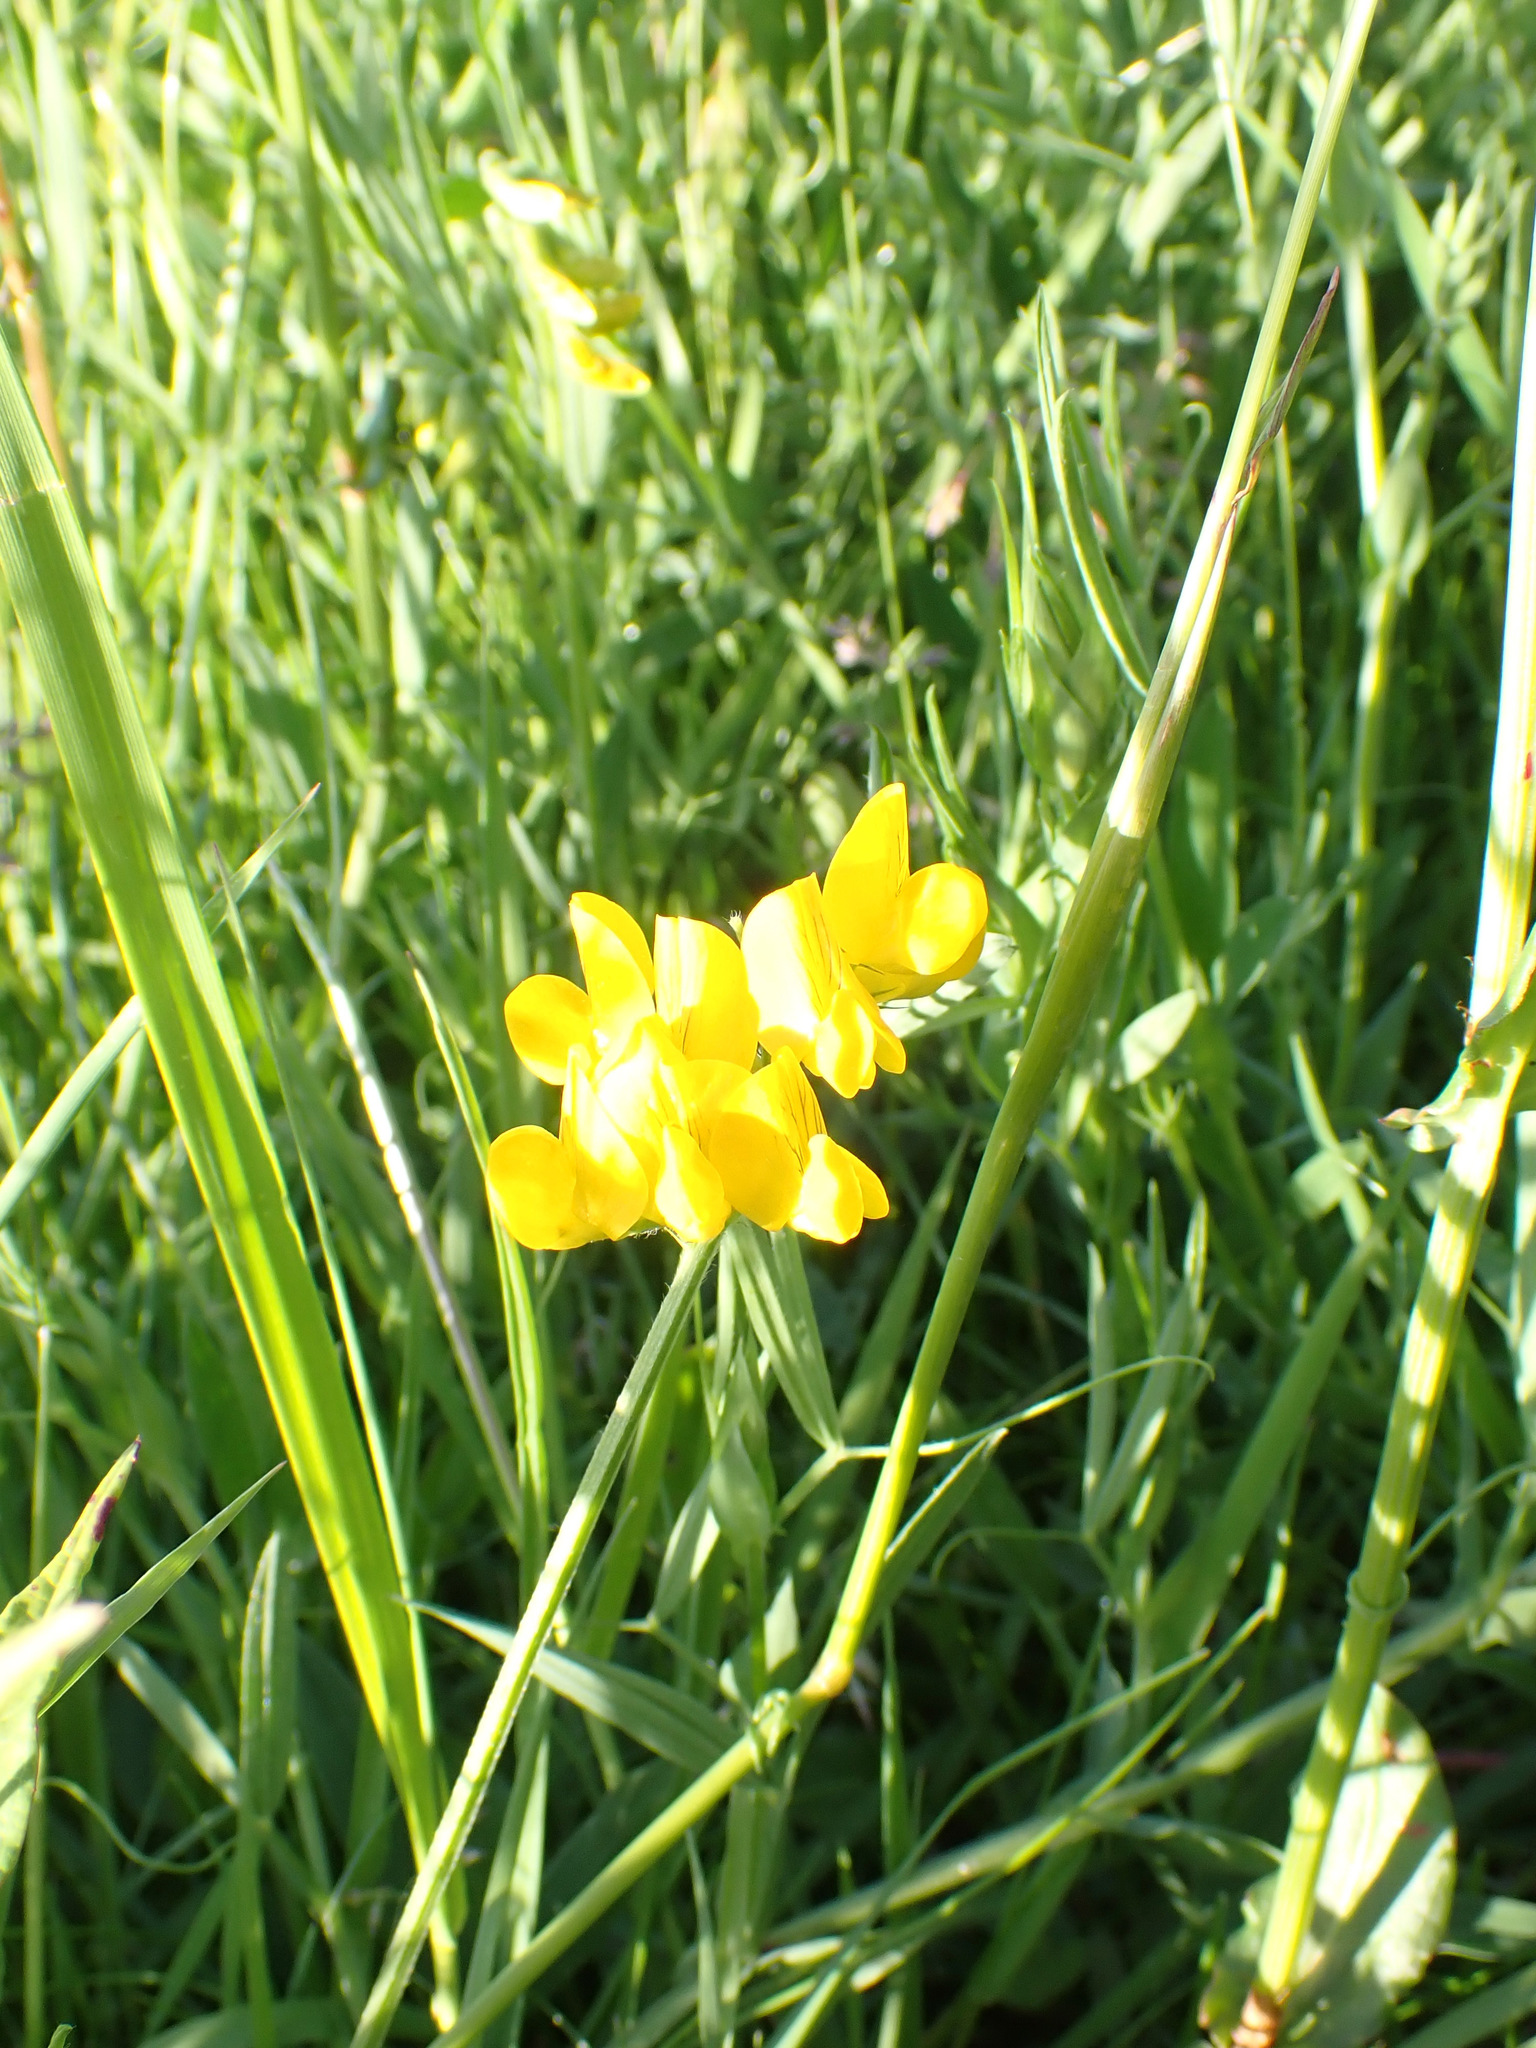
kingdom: Plantae
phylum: Tracheophyta
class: Magnoliopsida
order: Fabales
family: Fabaceae
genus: Lathyrus
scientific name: Lathyrus pratensis
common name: Meadow vetchling
